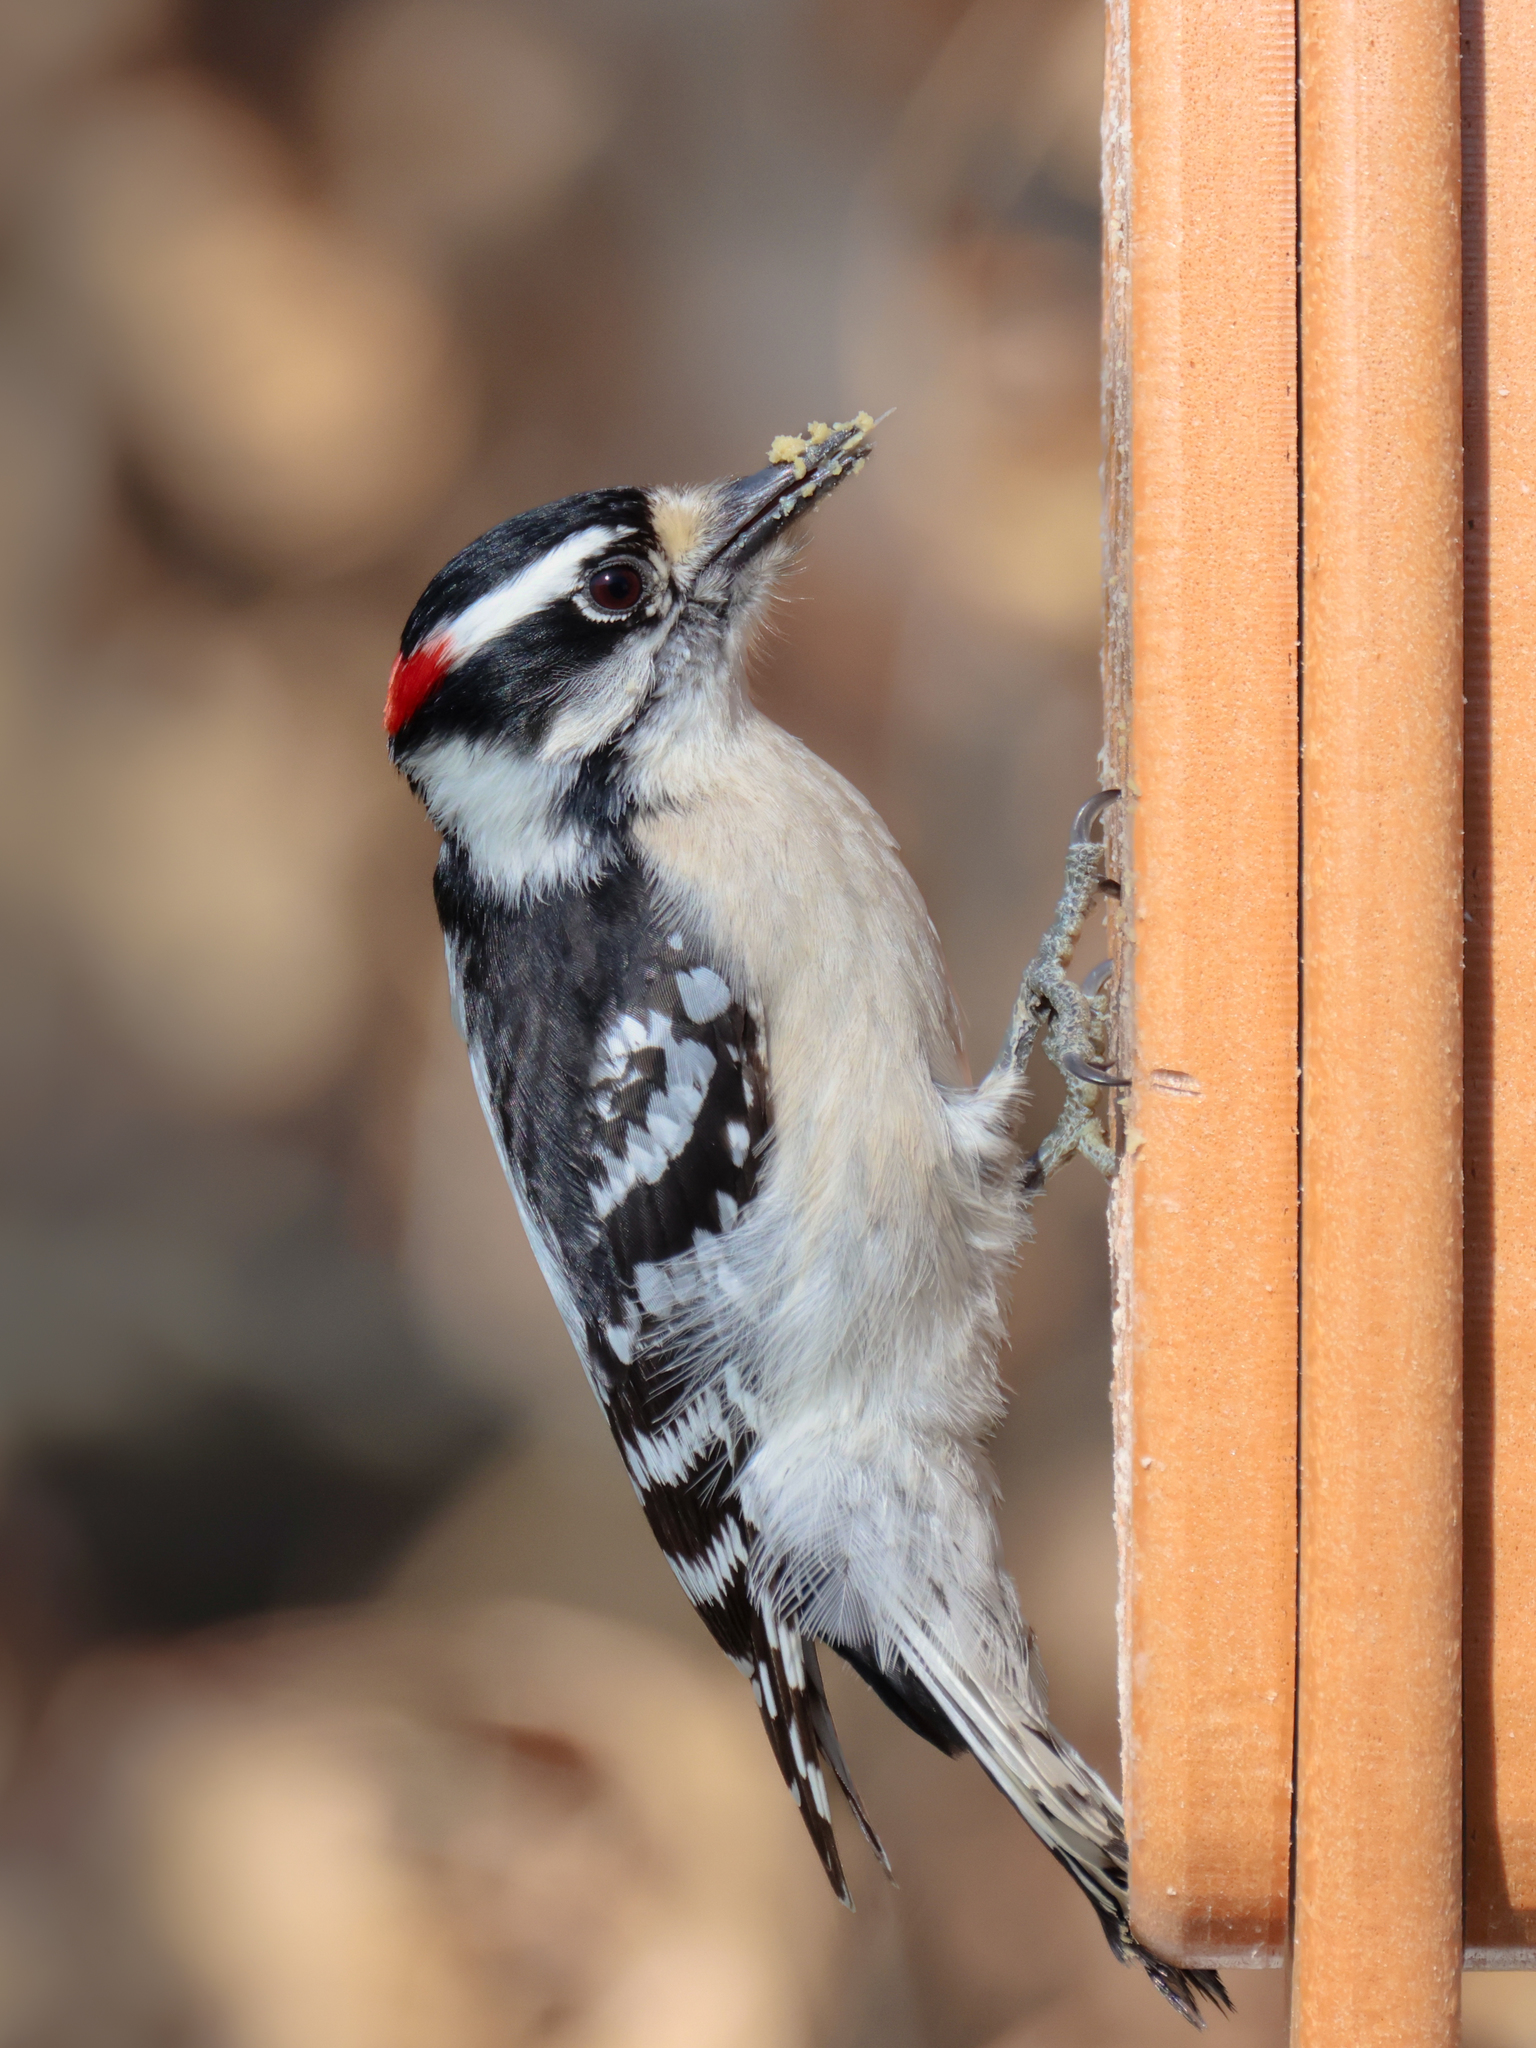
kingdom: Animalia
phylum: Chordata
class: Aves
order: Piciformes
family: Picidae
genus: Dryobates
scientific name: Dryobates pubescens
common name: Downy woodpecker
